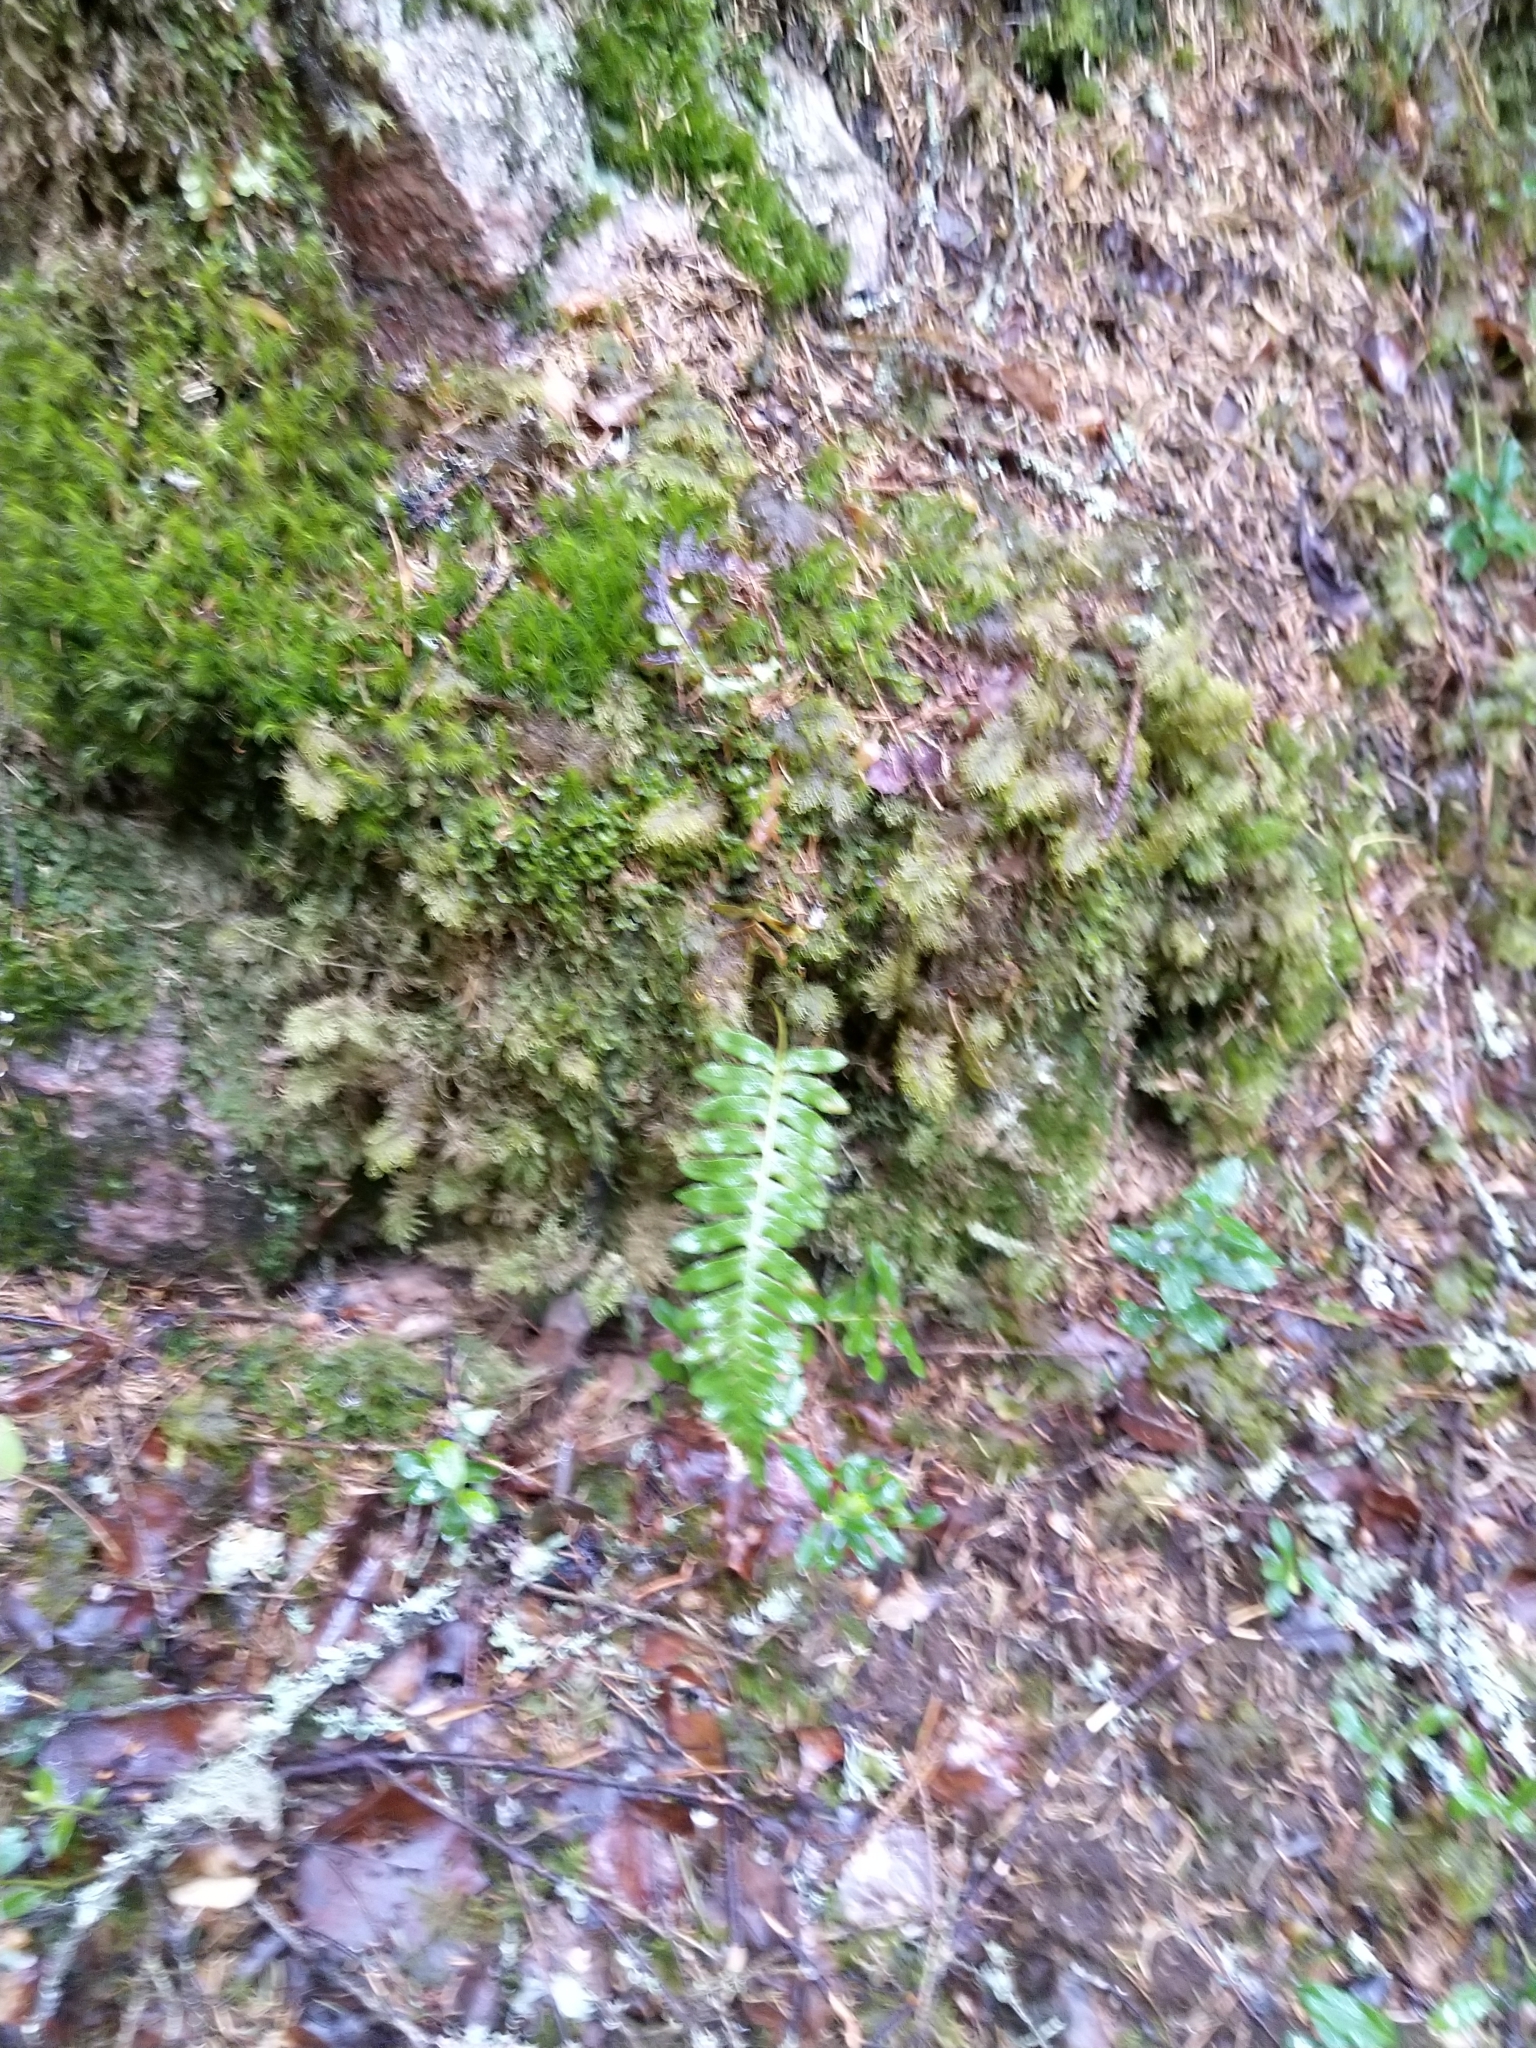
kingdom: Plantae
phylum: Tracheophyta
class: Polypodiopsida
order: Polypodiales
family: Polypodiaceae
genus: Polypodium
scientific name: Polypodium vulgare
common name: Common polypody
